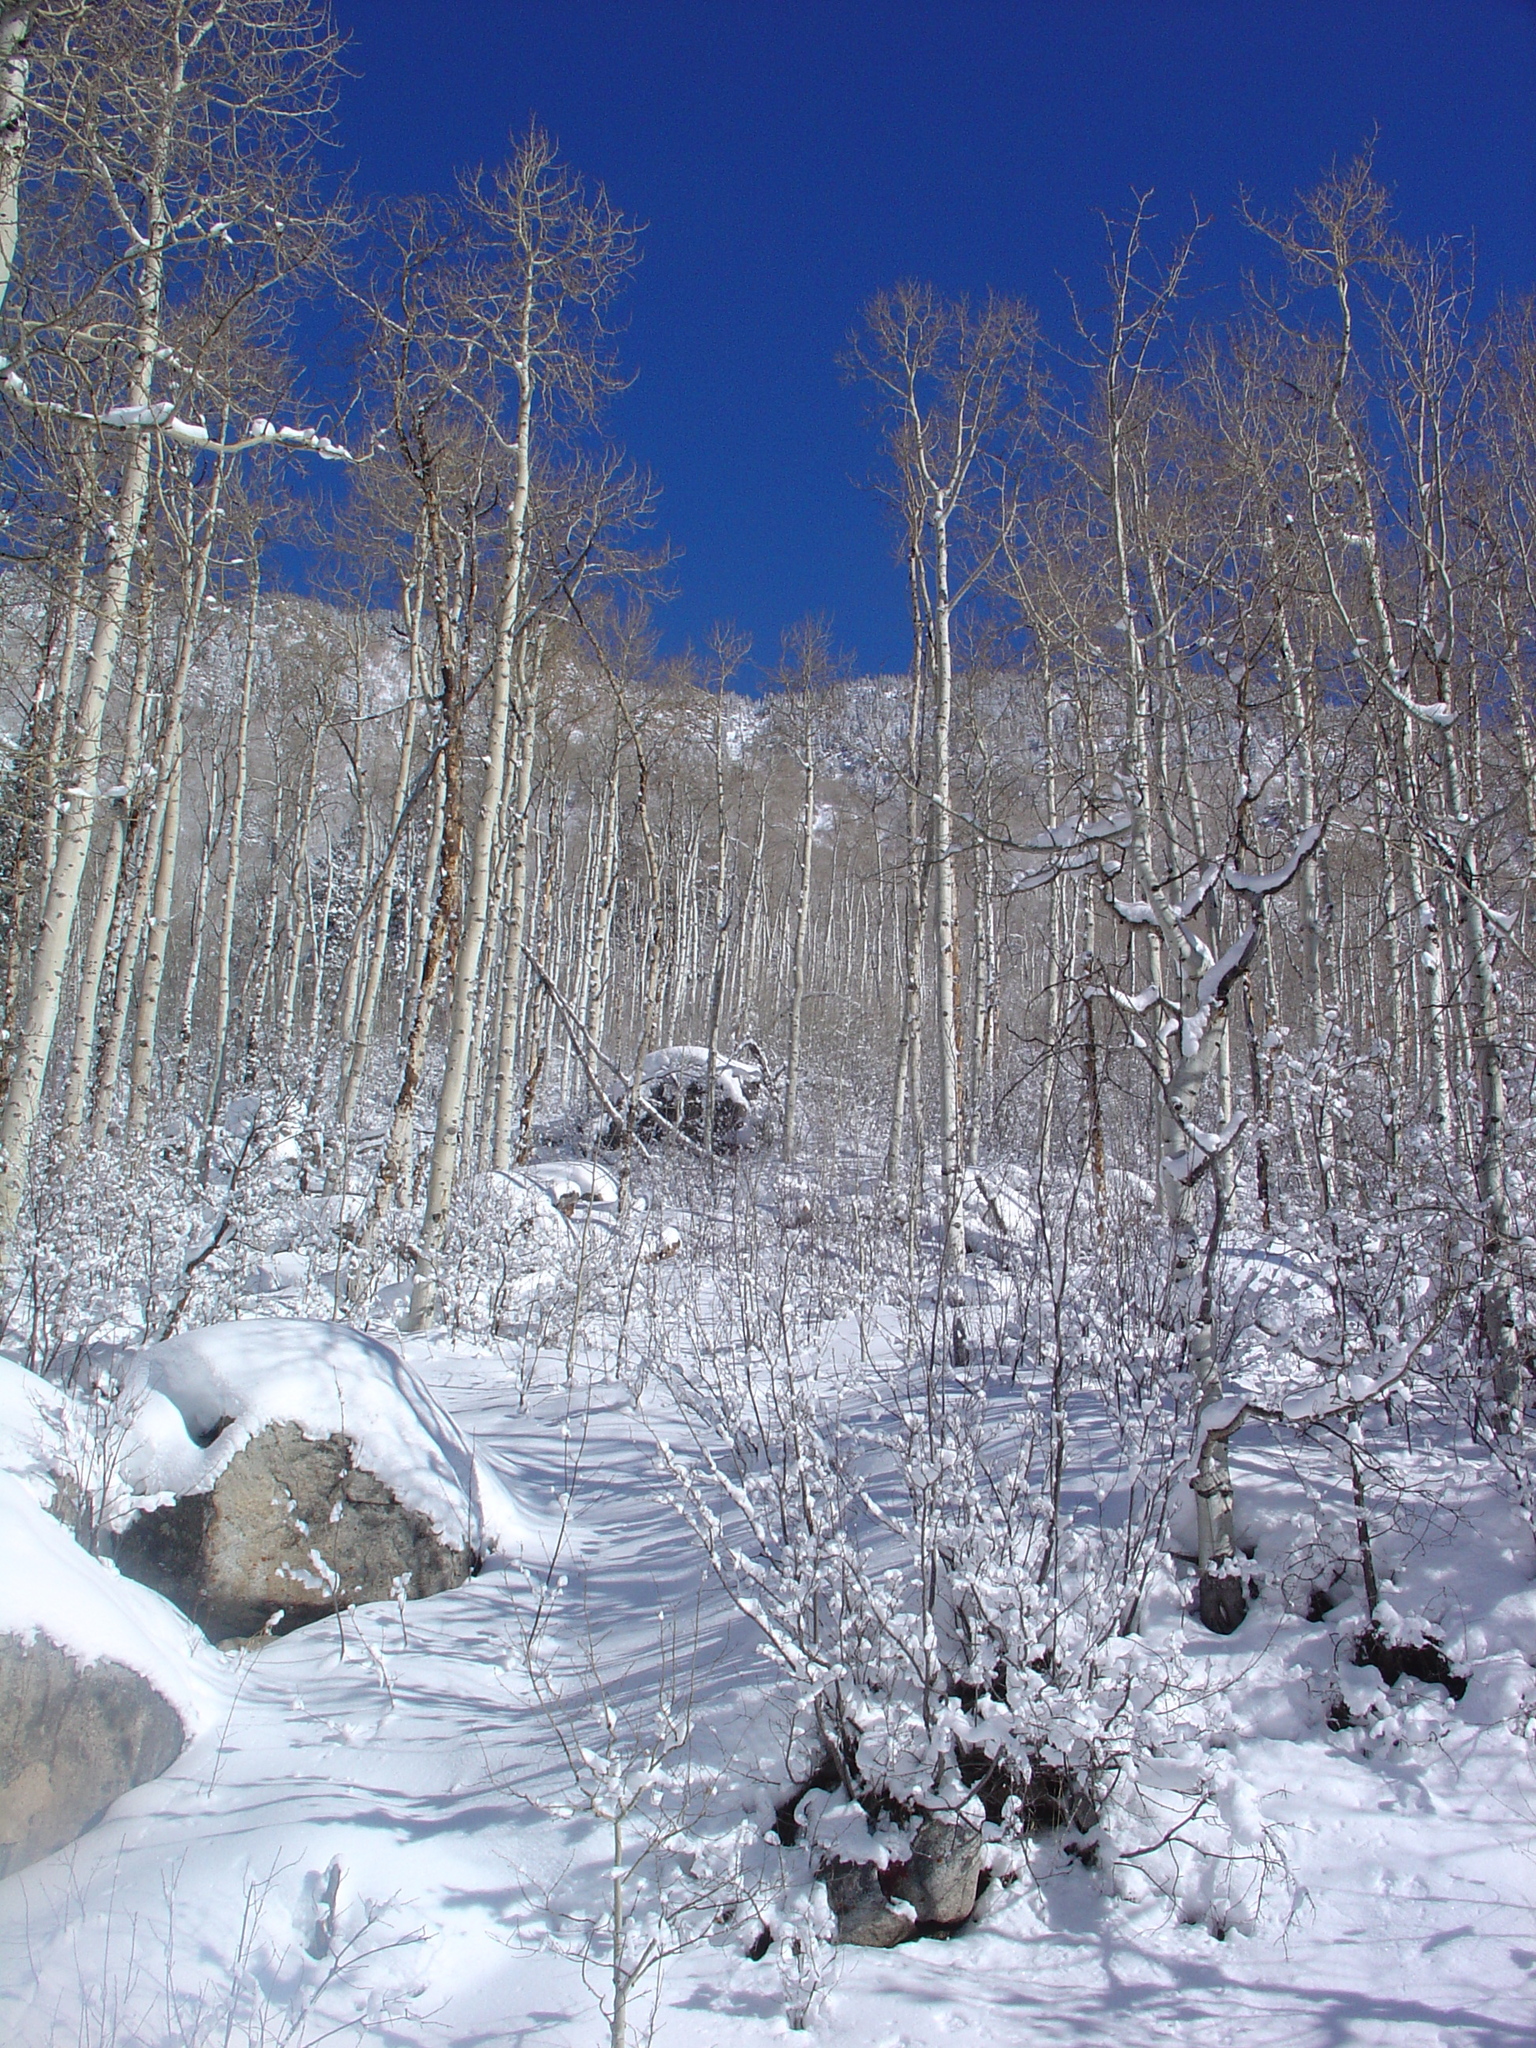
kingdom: Plantae
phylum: Tracheophyta
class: Magnoliopsida
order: Malpighiales
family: Salicaceae
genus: Populus
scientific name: Populus tremuloides
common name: Quaking aspen
